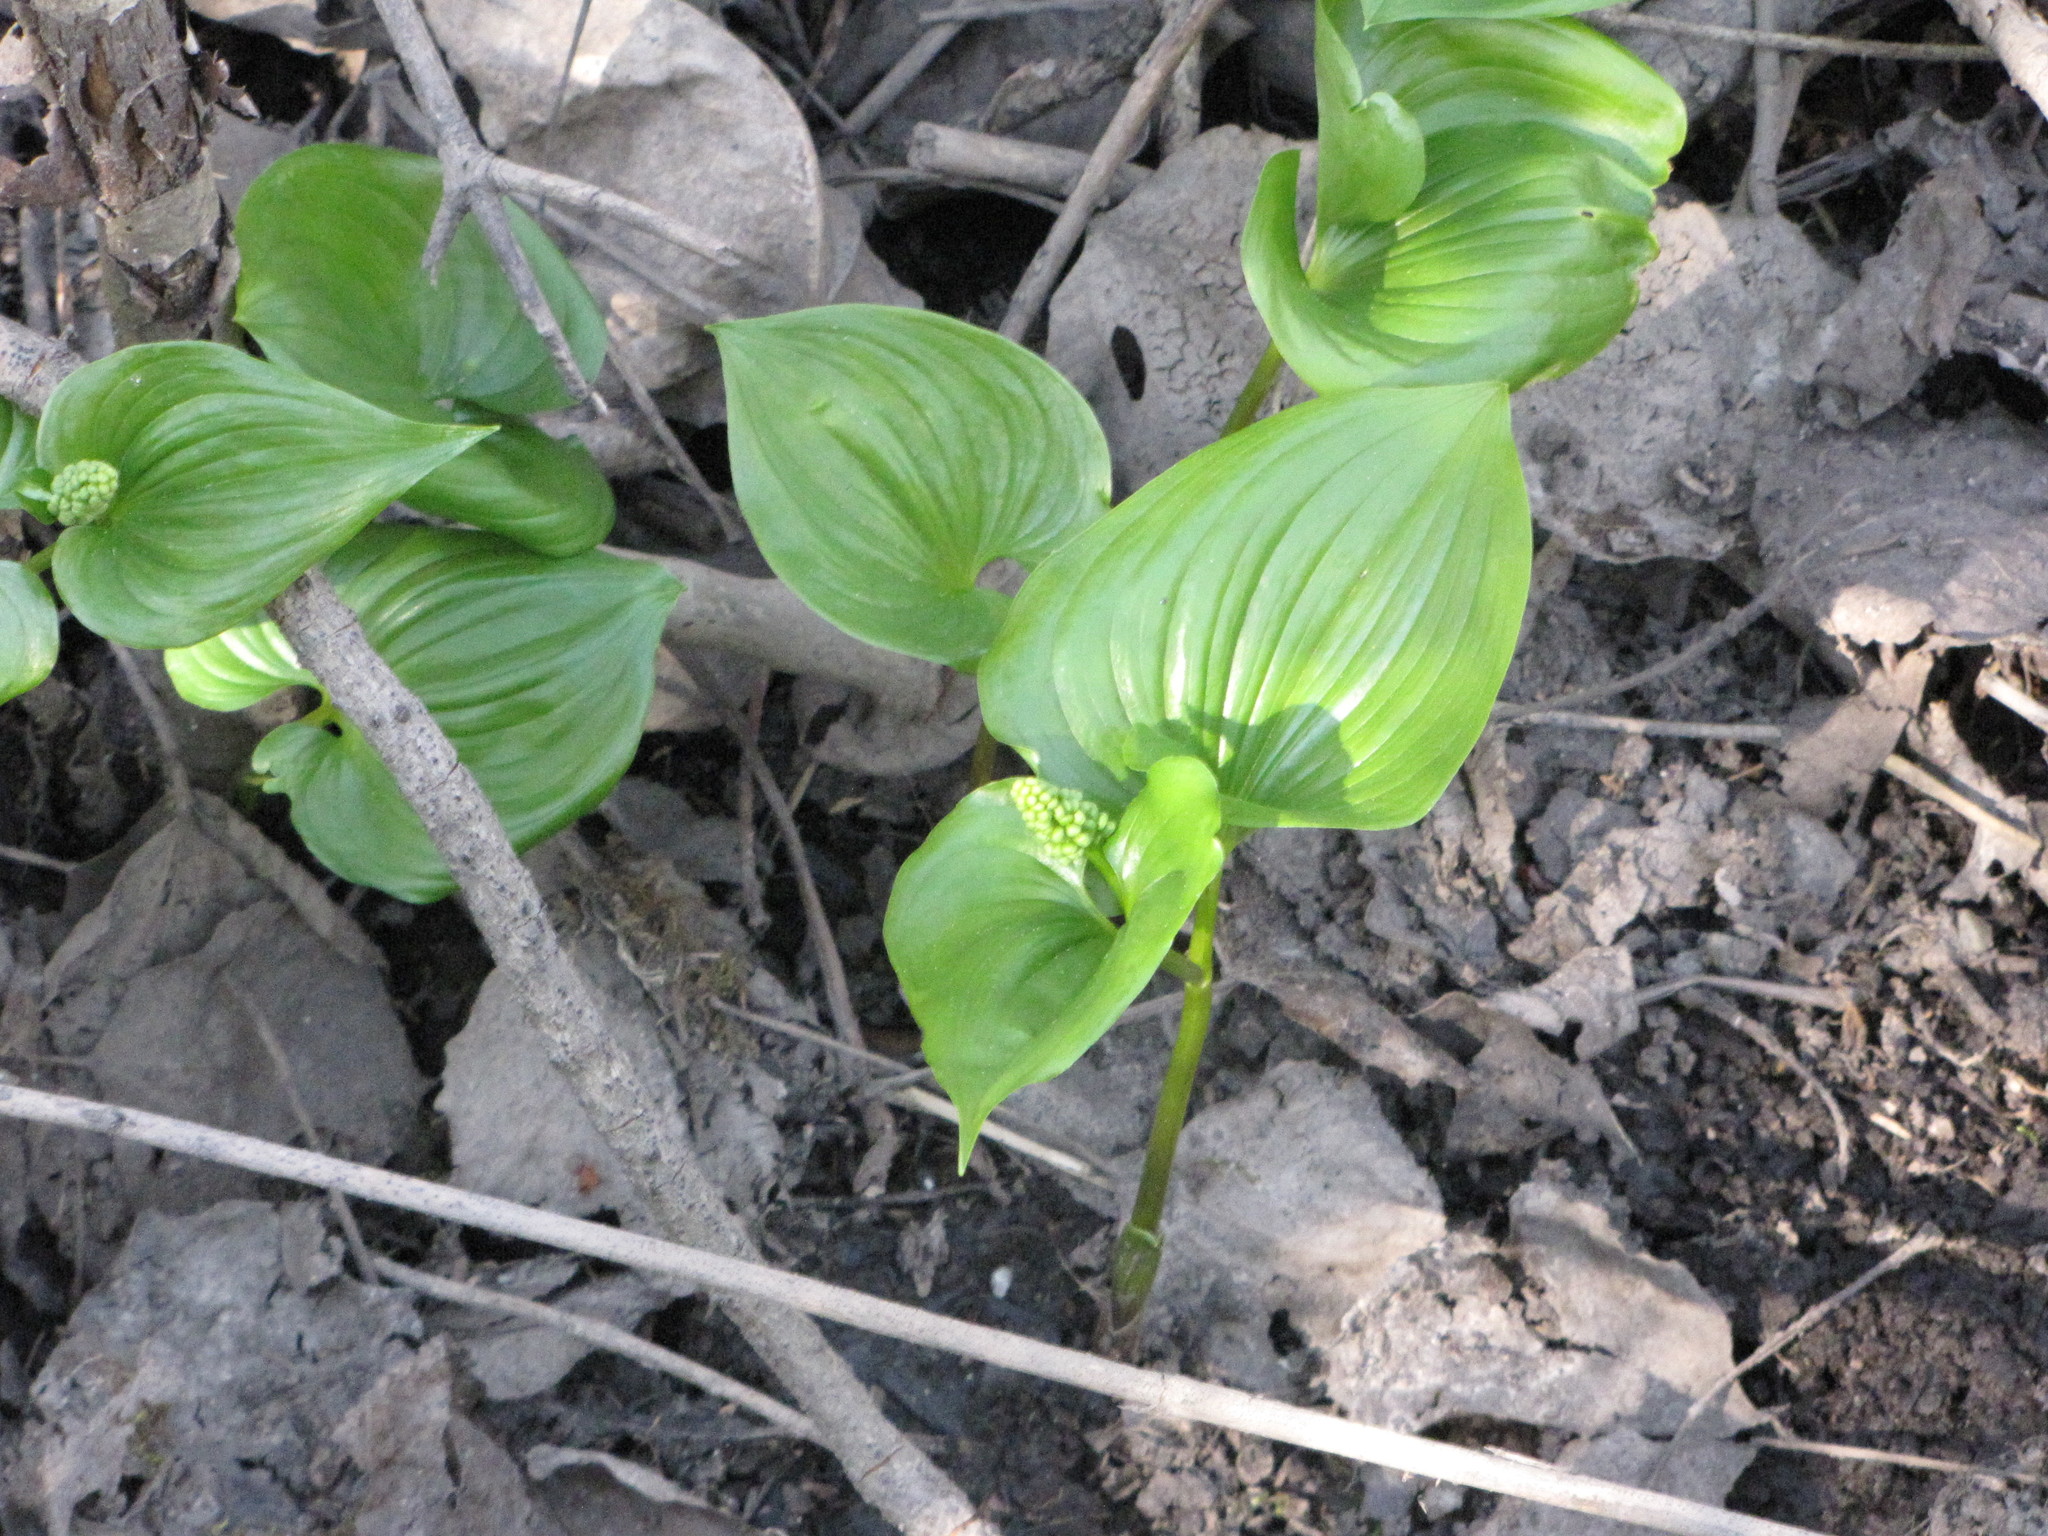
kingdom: Plantae
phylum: Tracheophyta
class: Liliopsida
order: Asparagales
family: Asparagaceae
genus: Maianthemum
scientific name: Maianthemum dilatatum
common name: False lily-of-the-valley
